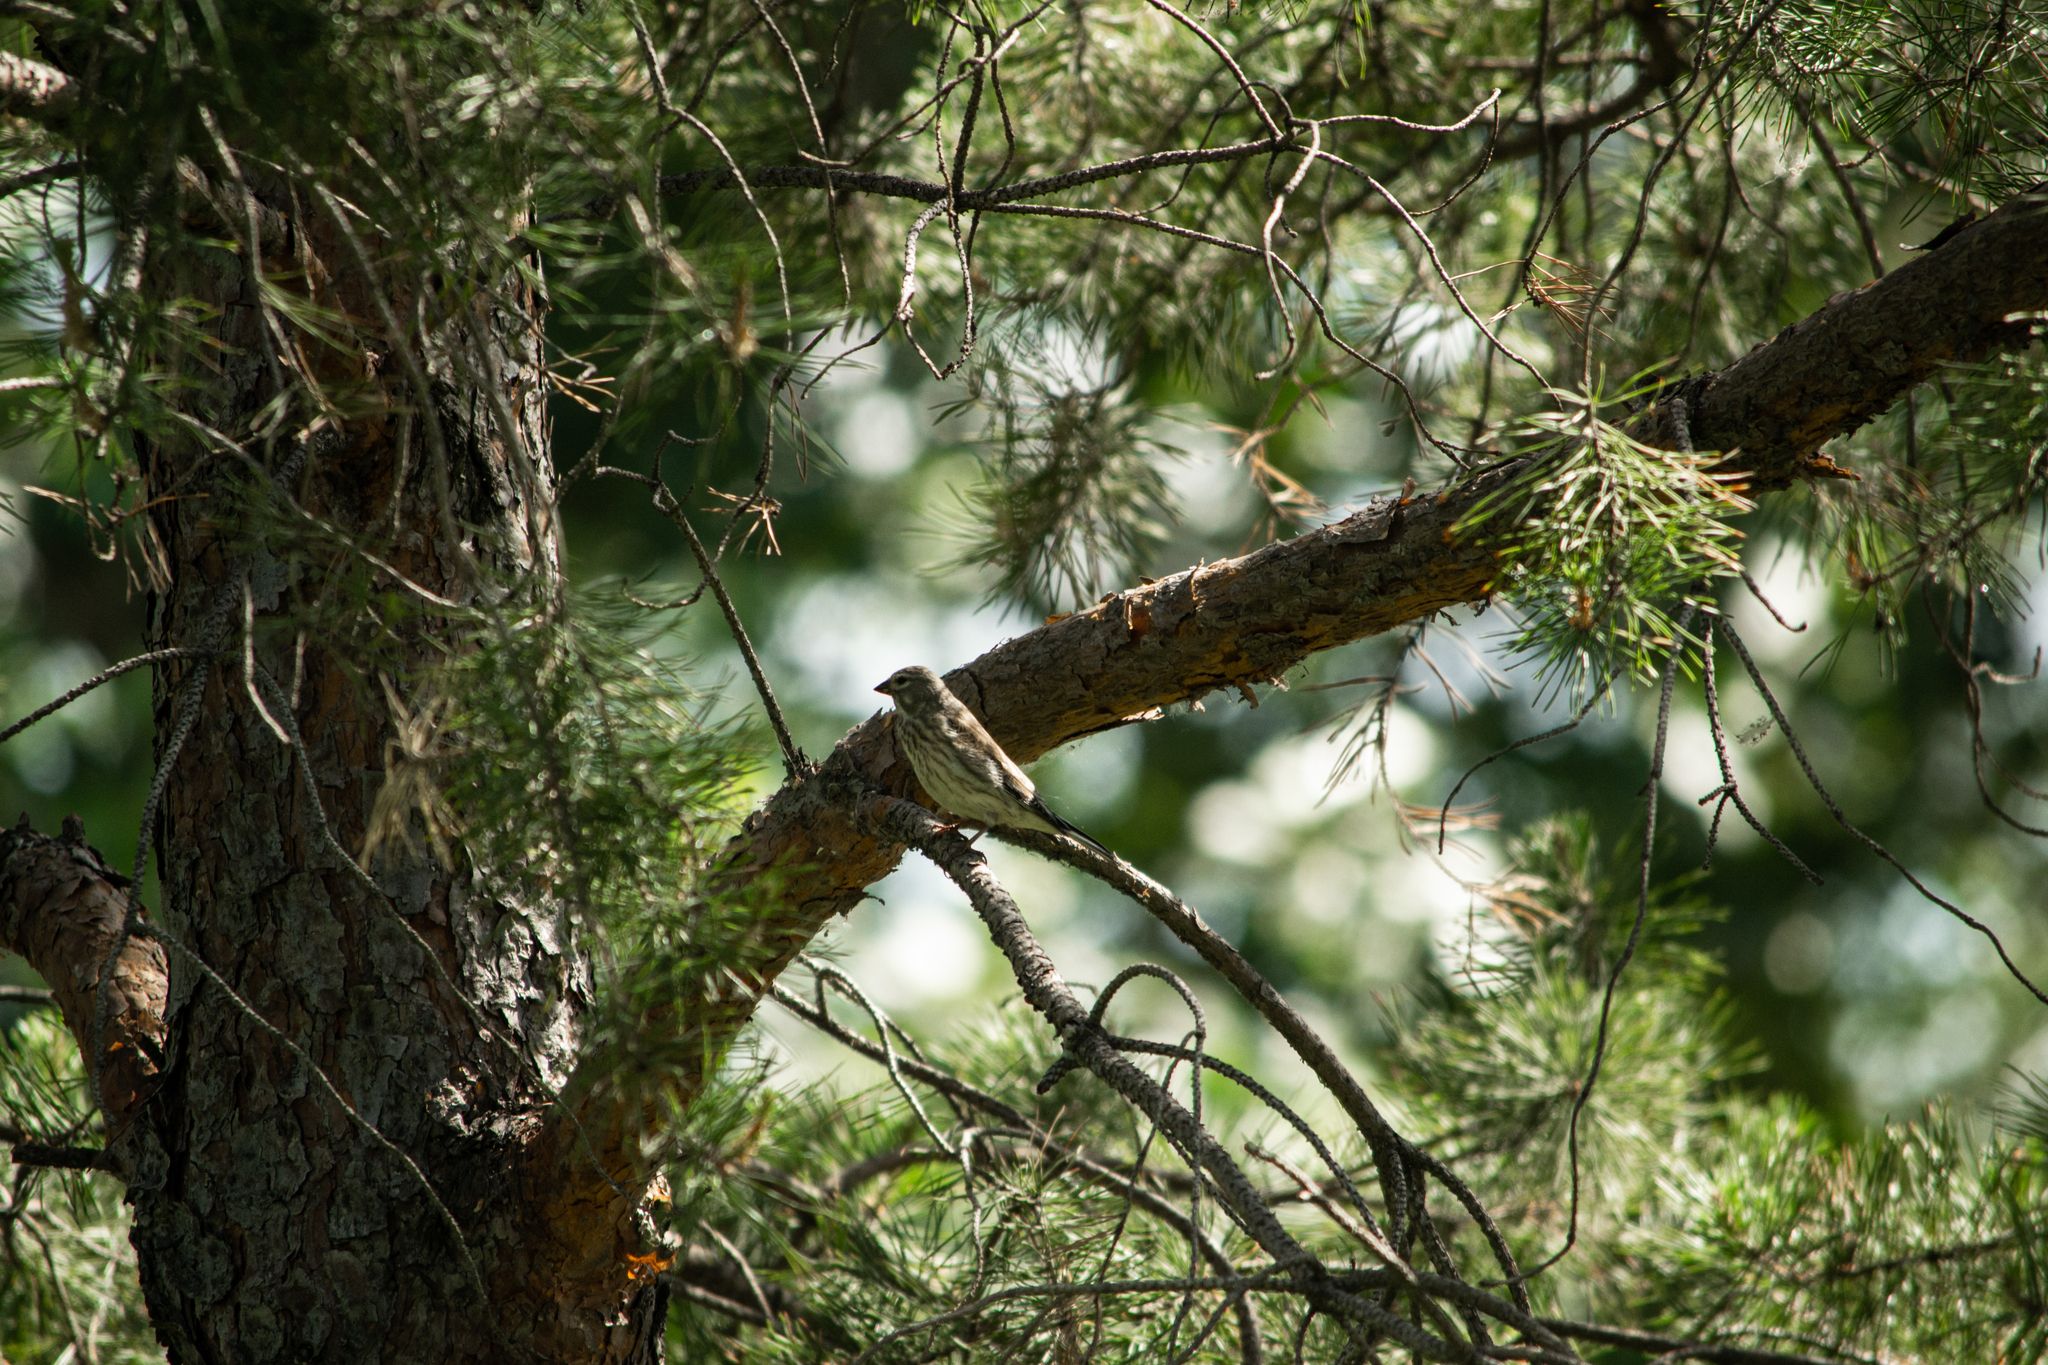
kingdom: Animalia
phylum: Chordata
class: Aves
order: Passeriformes
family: Fringillidae
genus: Linaria
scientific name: Linaria cannabina
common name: Common linnet
